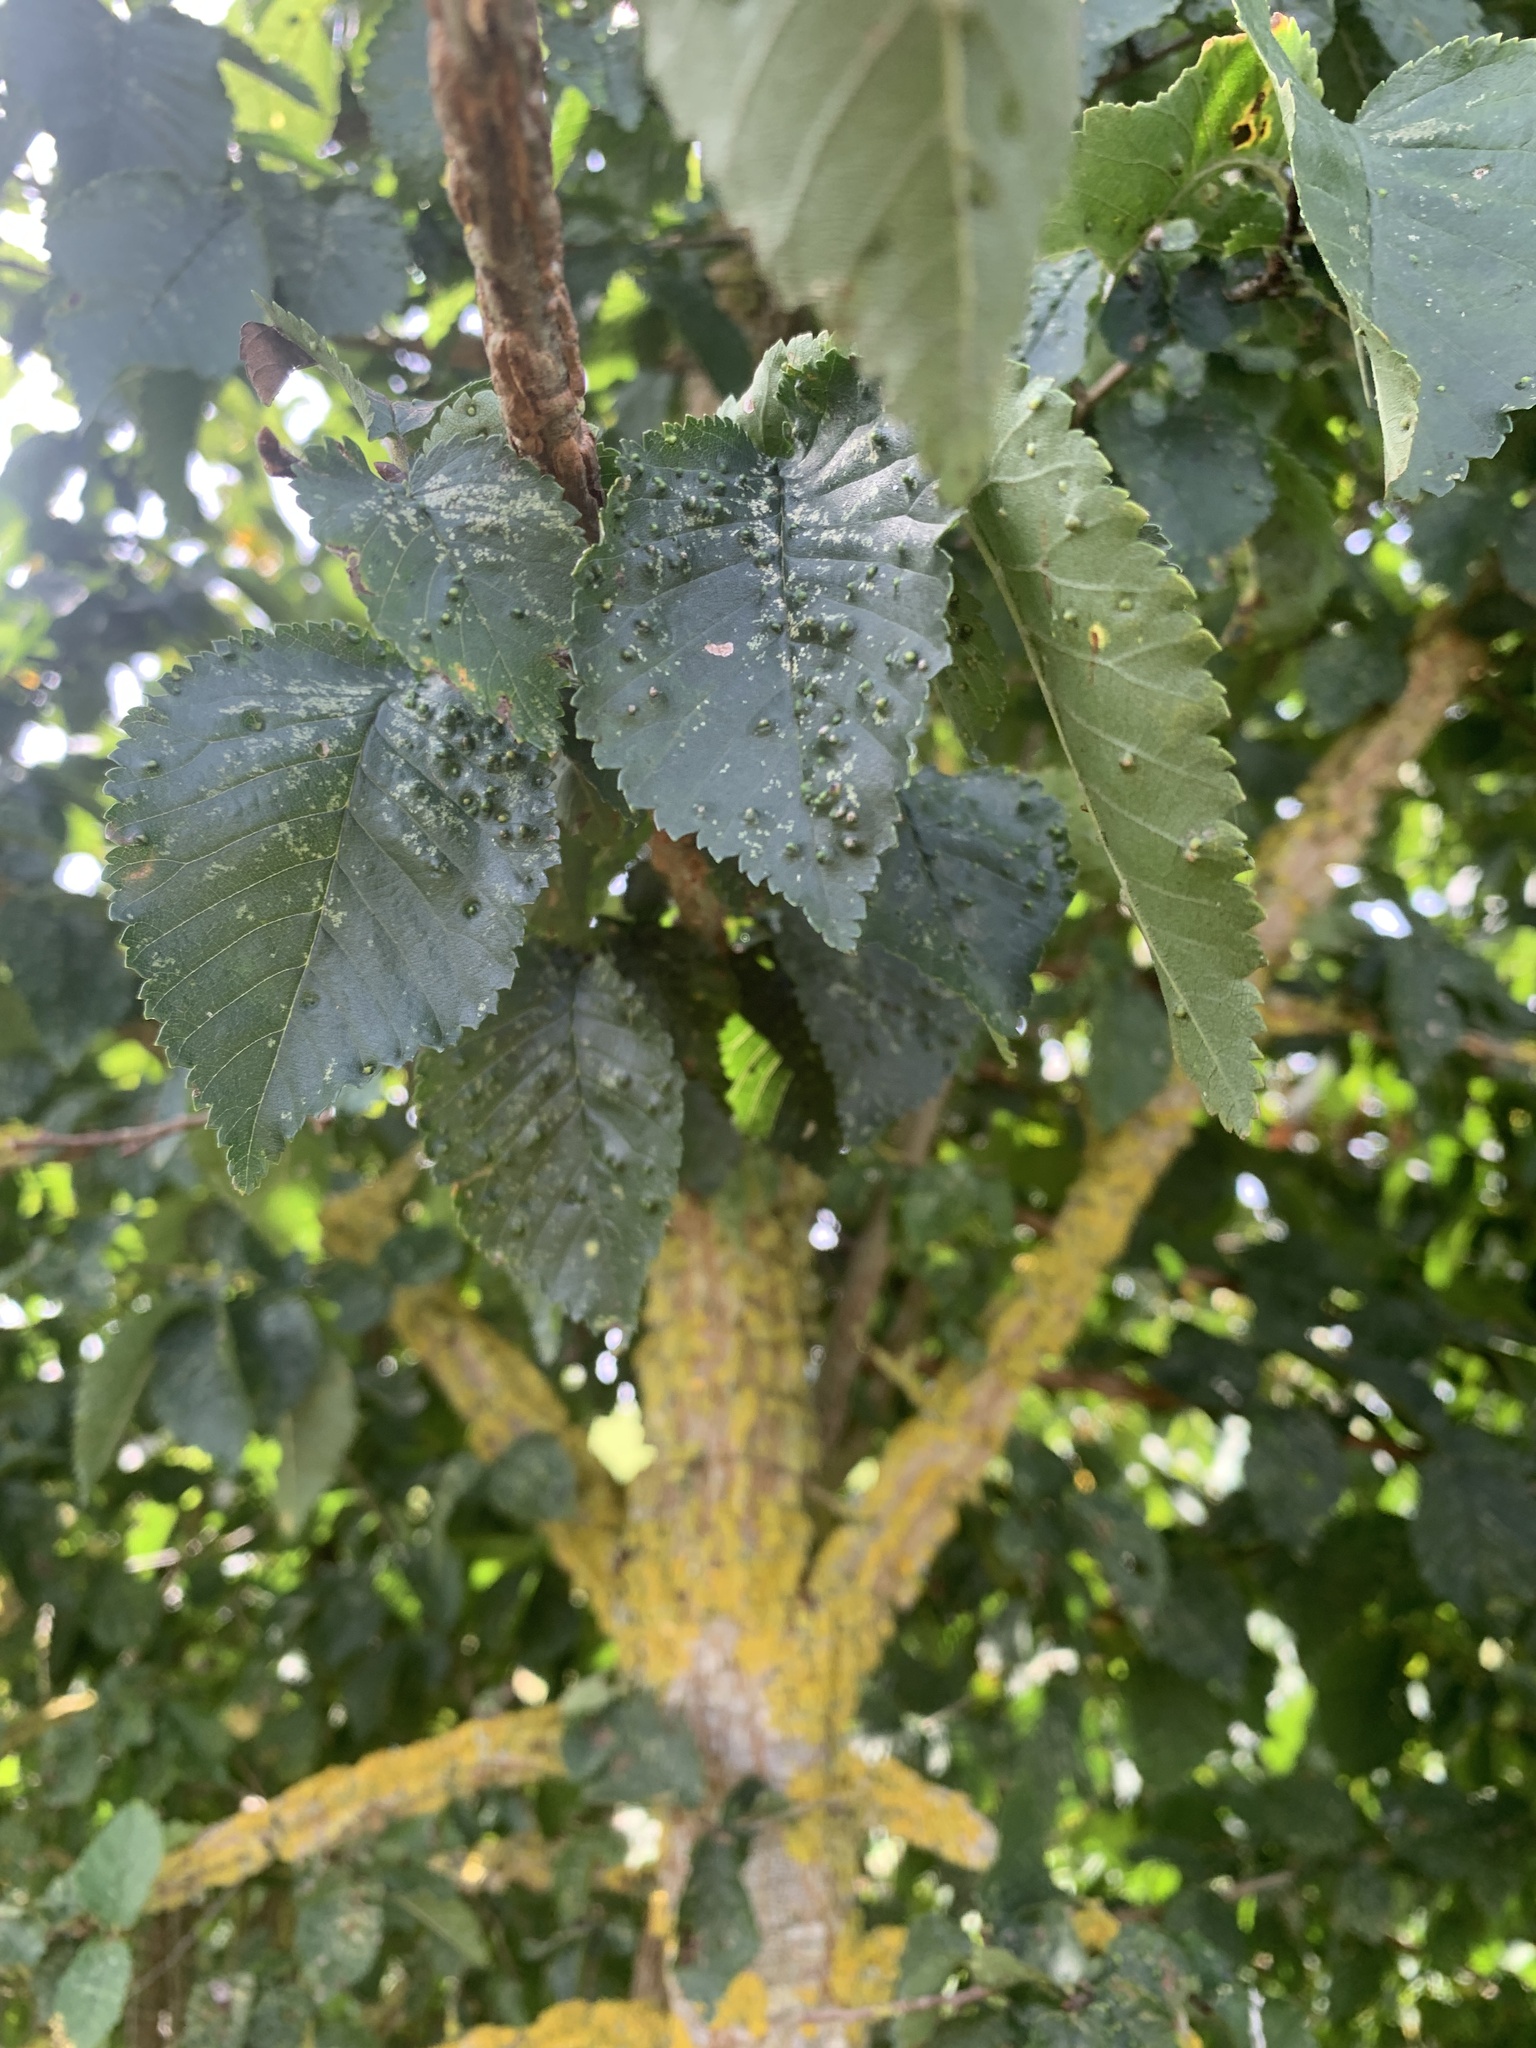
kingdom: Plantae
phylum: Tracheophyta
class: Magnoliopsida
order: Rosales
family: Ulmaceae
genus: Ulmus
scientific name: Ulmus minor
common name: Small-leaved elm
